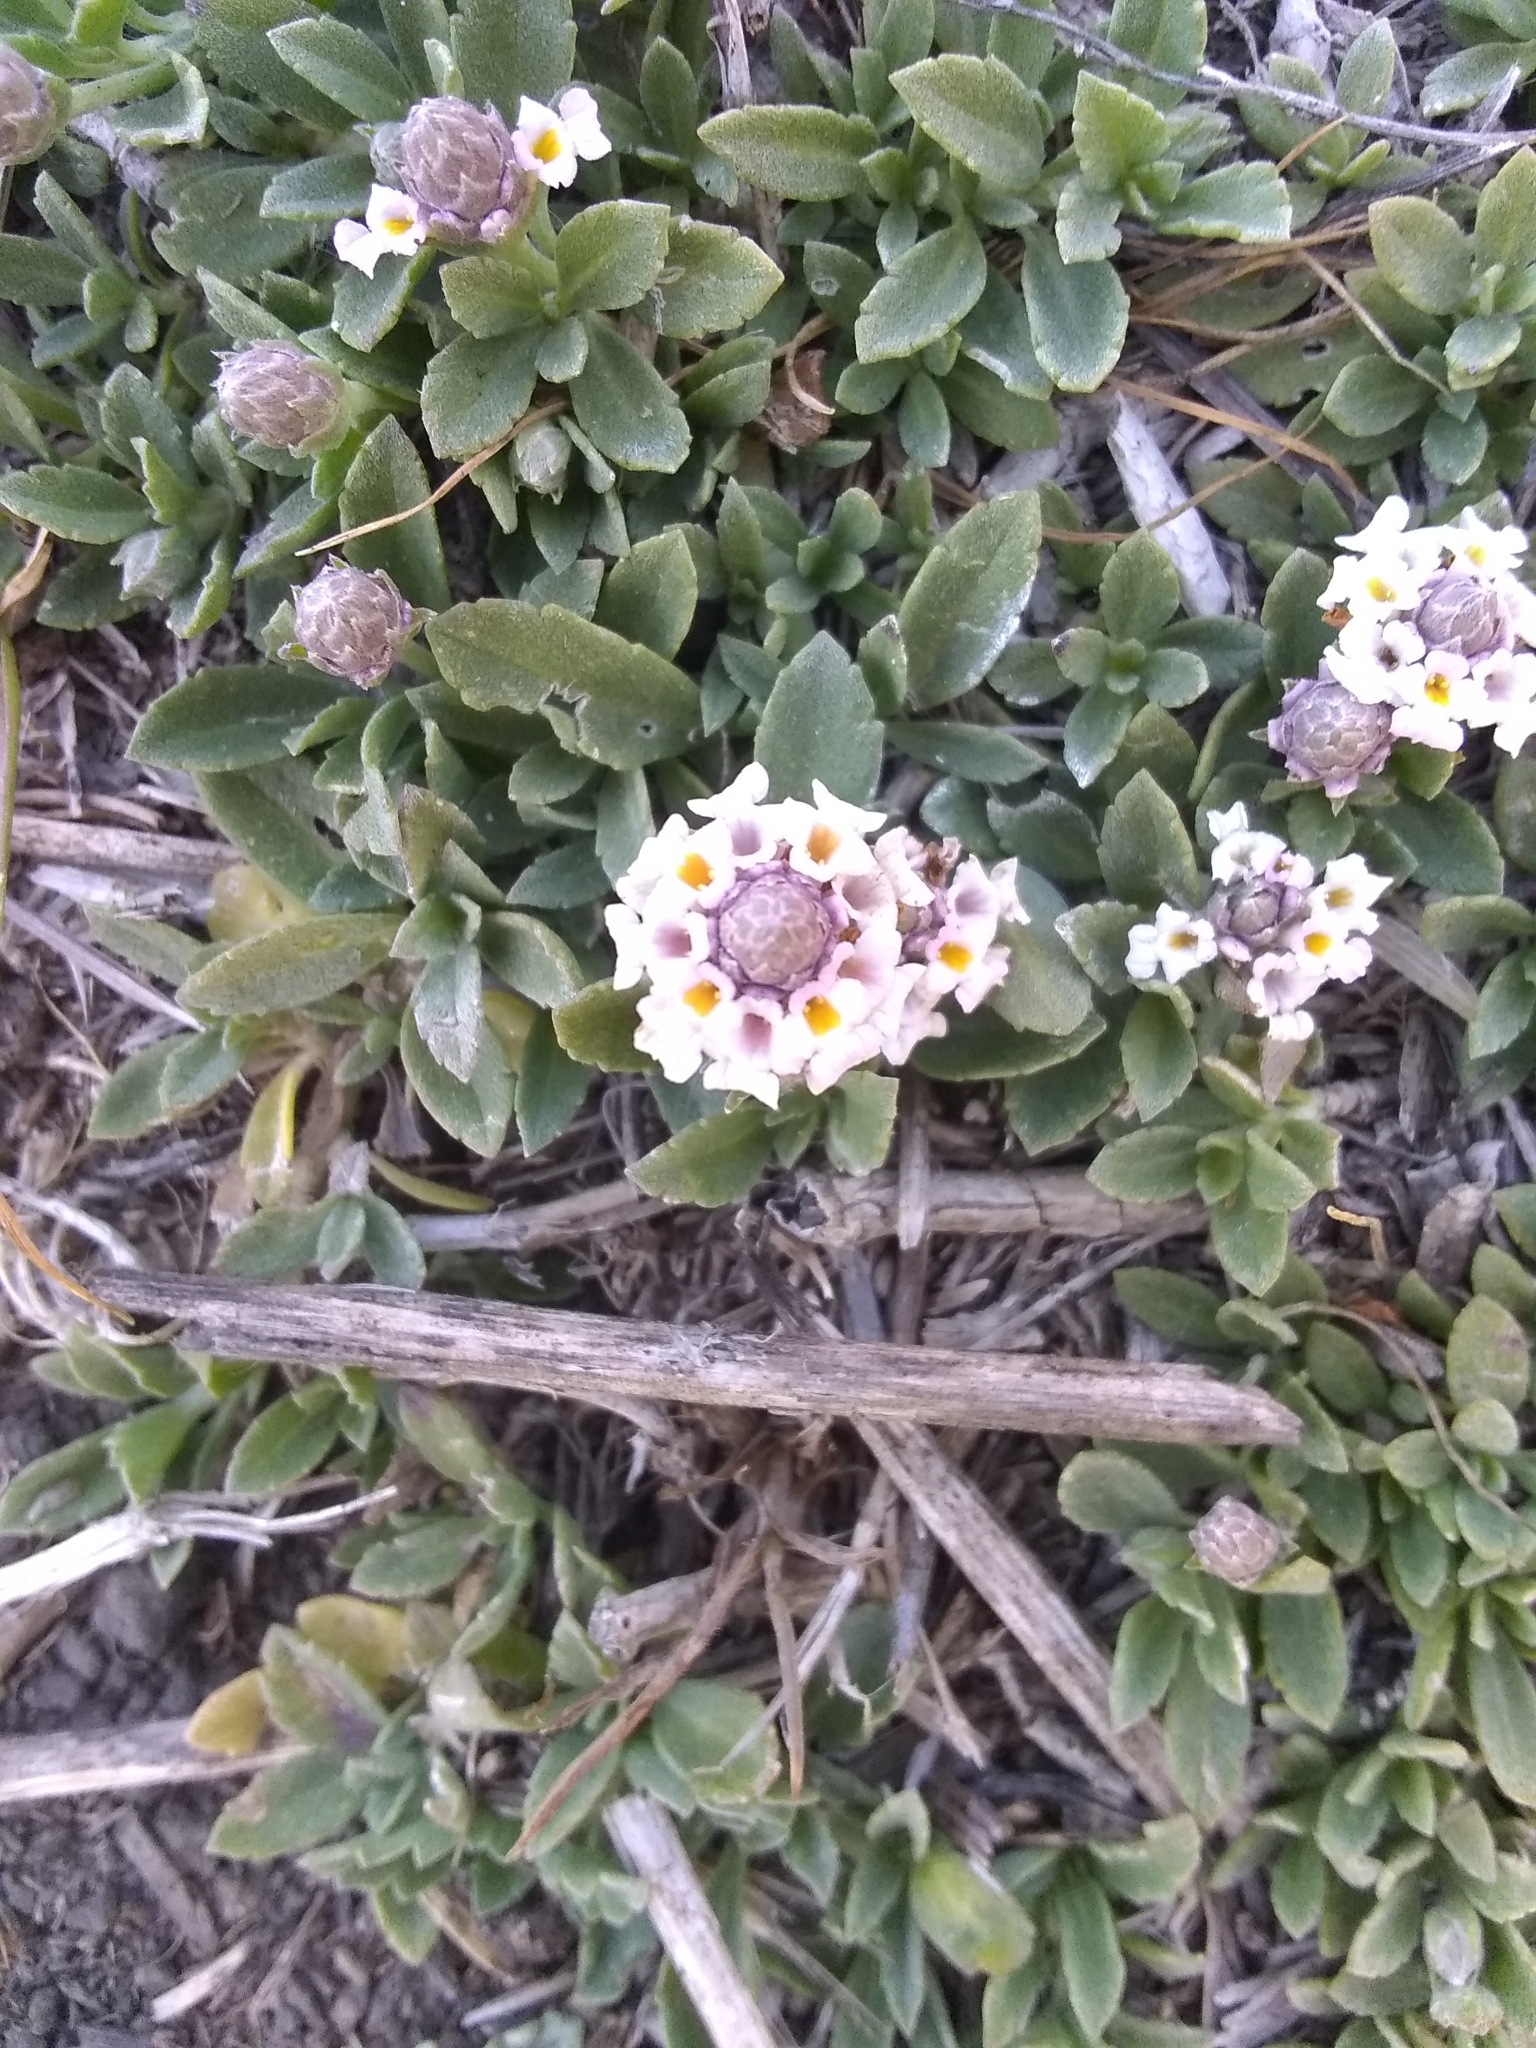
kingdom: Plantae
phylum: Tracheophyta
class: Magnoliopsida
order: Lamiales
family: Verbenaceae
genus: Phyla
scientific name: Phyla nodiflora
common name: Frogfruit
